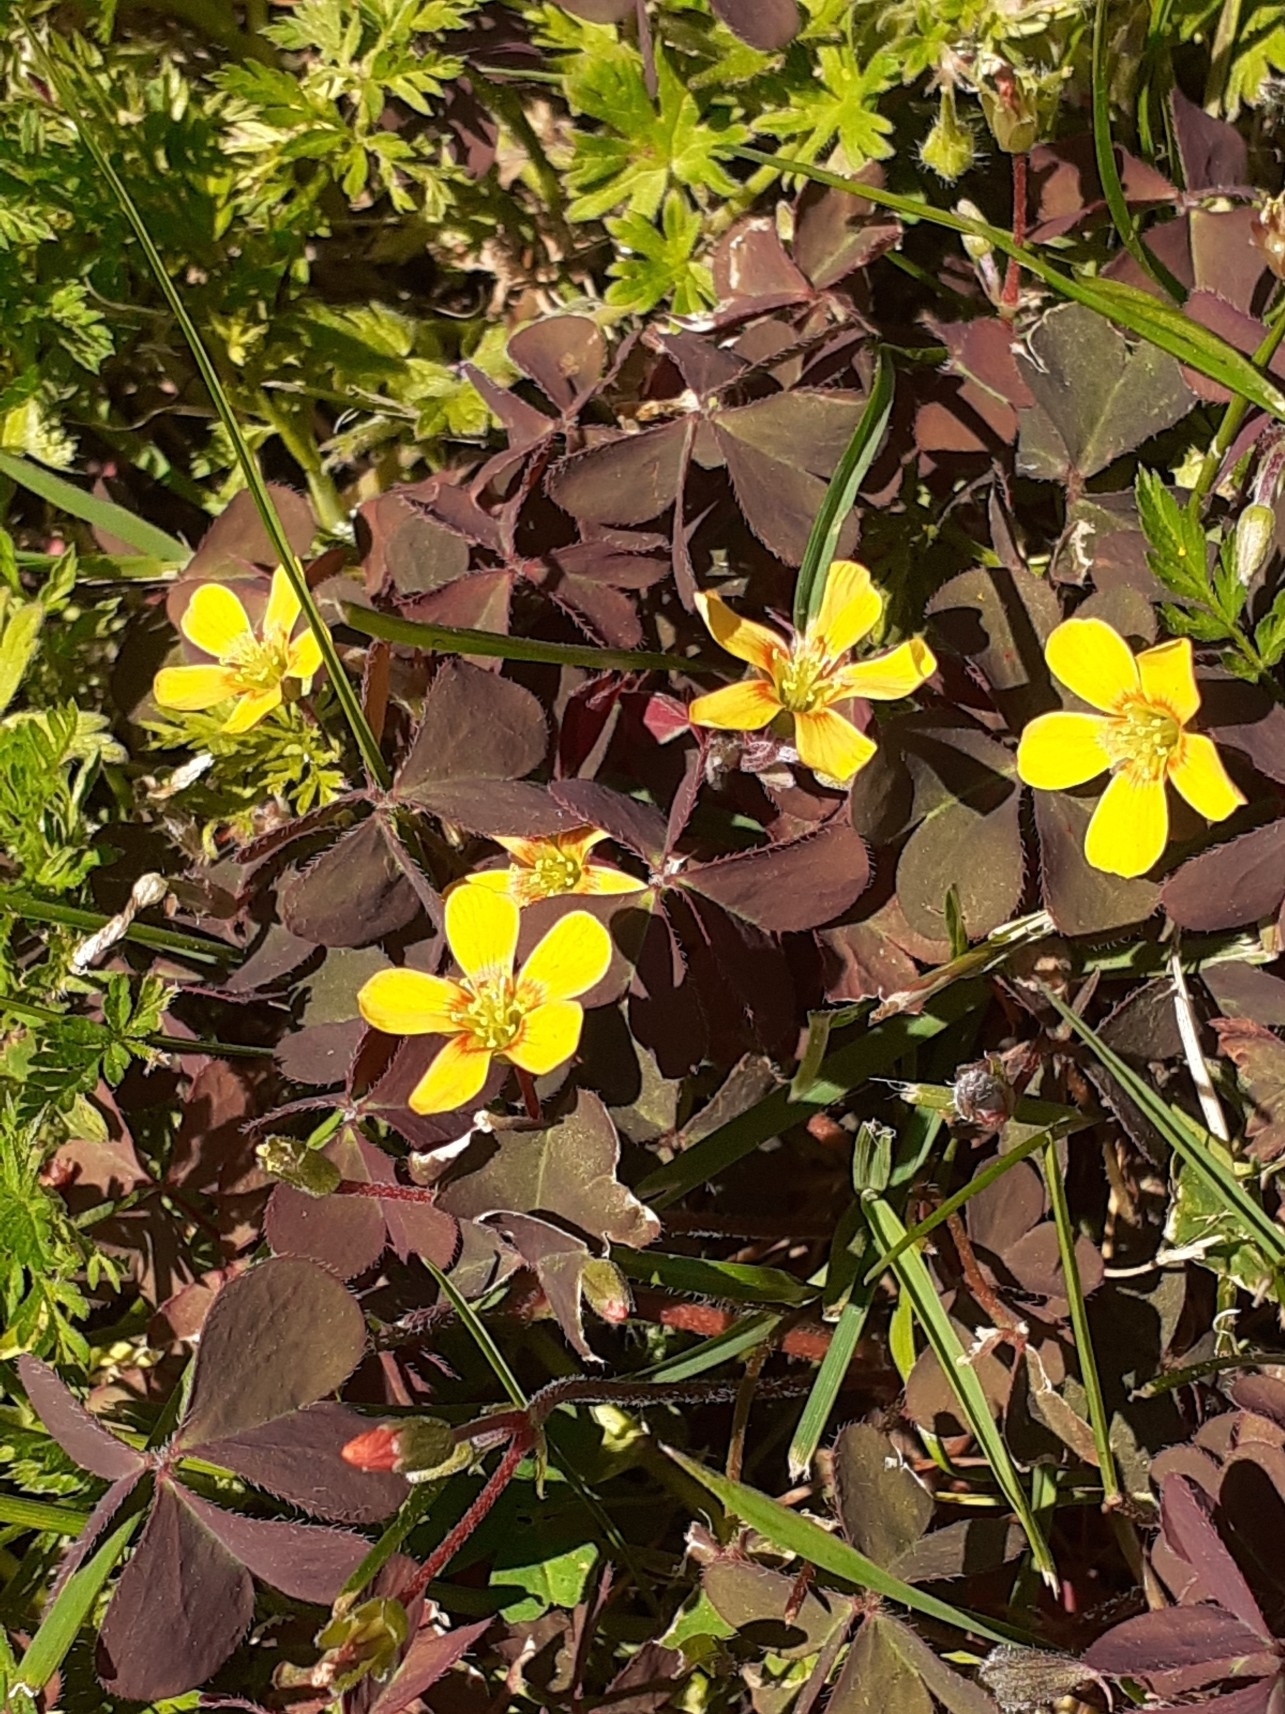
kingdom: Plantae
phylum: Tracheophyta
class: Magnoliopsida
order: Oxalidales
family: Oxalidaceae
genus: Oxalis
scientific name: Oxalis corniculata
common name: Procumbent yellow-sorrel
